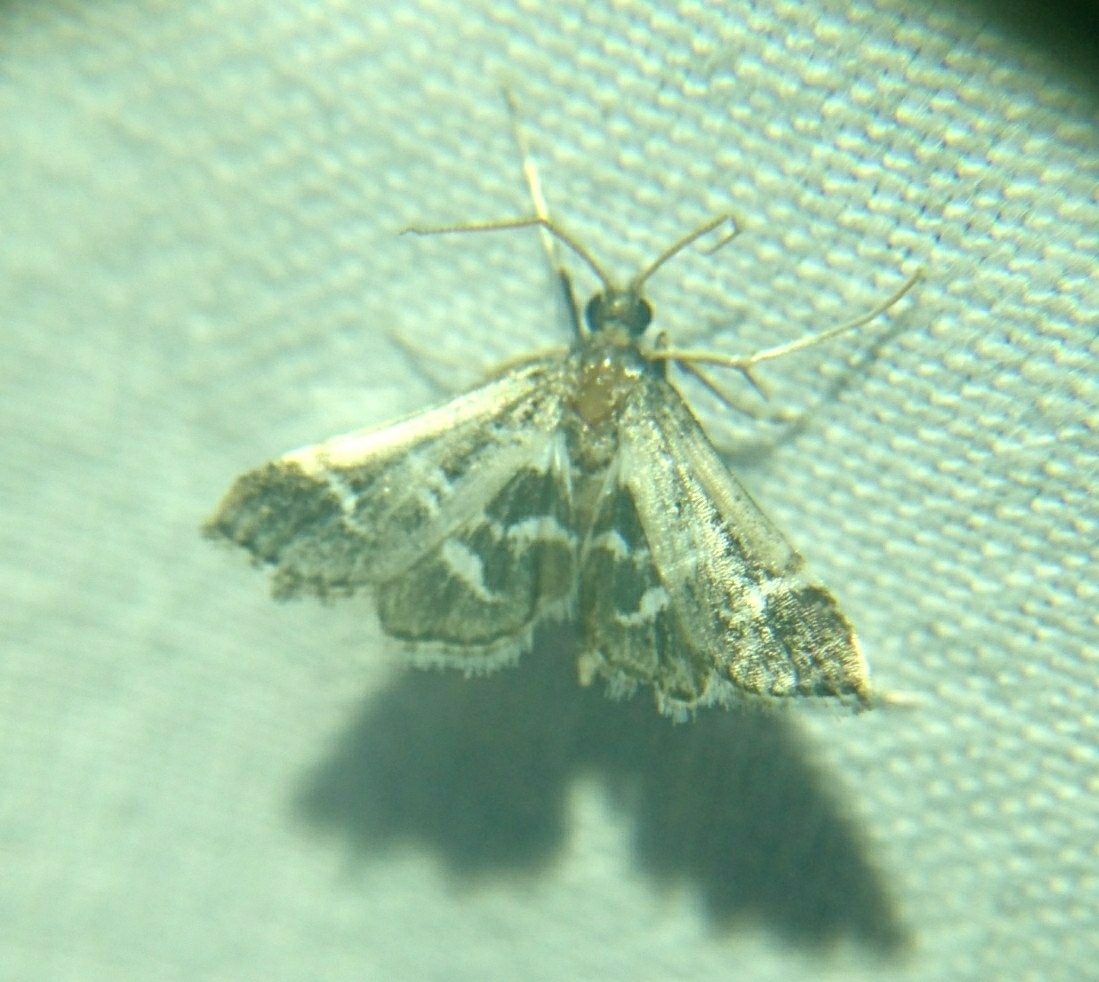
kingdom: Animalia
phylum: Arthropoda
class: Insecta
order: Lepidoptera
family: Crambidae
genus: Diasemiodes
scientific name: Diasemiodes janassialis
